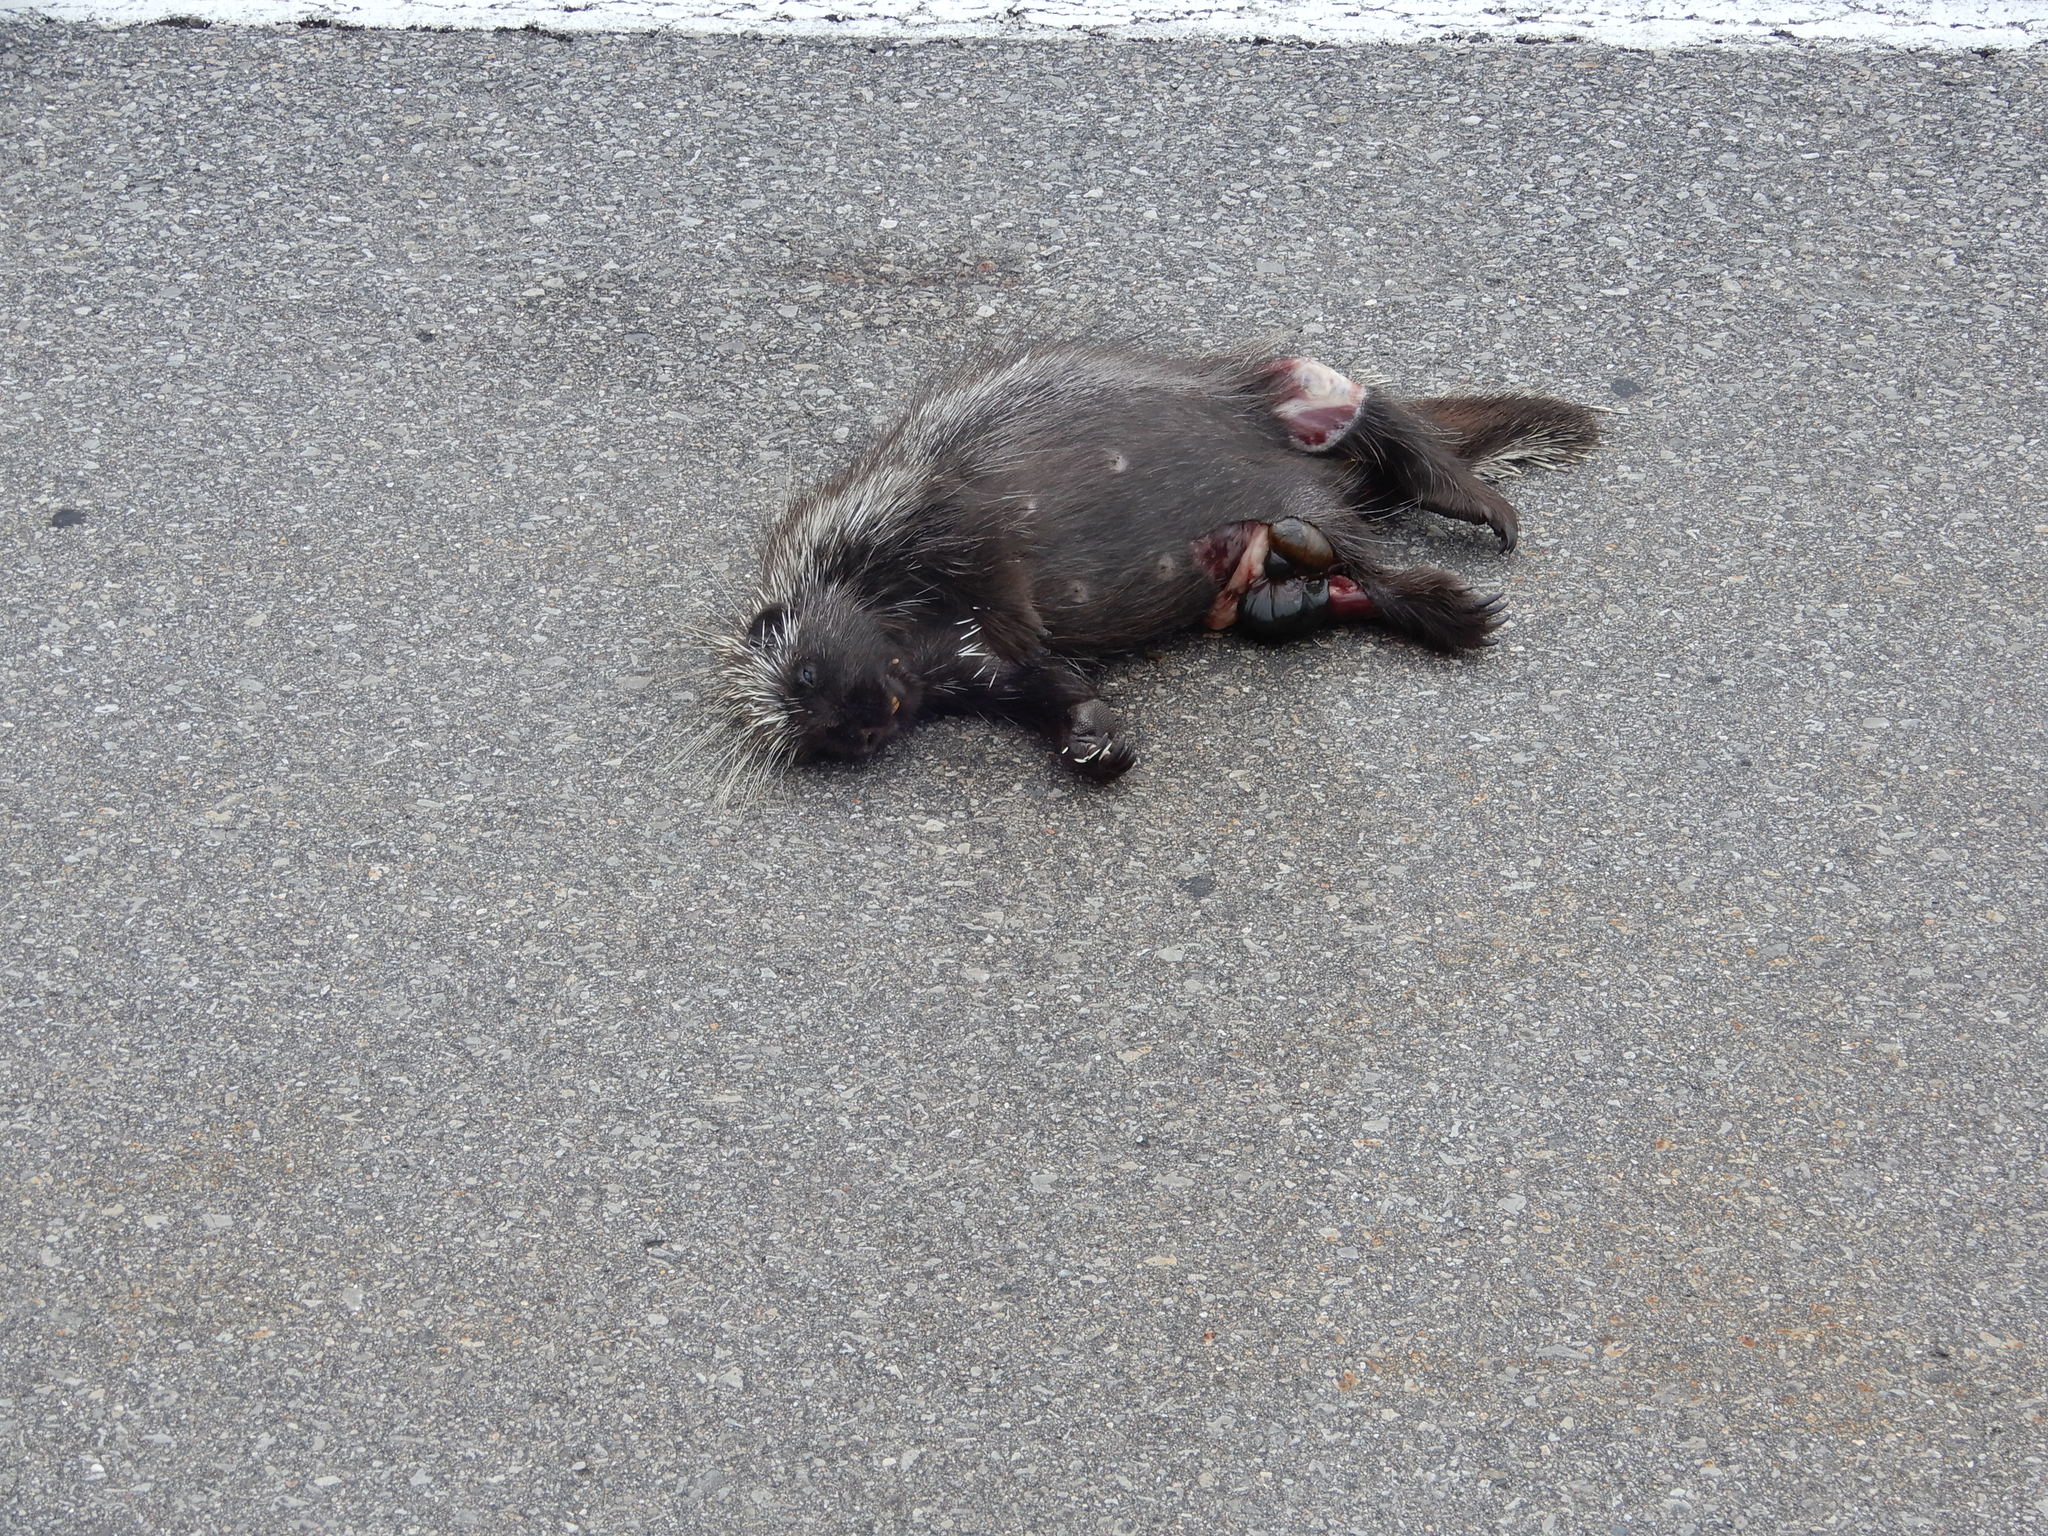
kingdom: Animalia
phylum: Chordata
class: Mammalia
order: Rodentia
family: Erethizontidae
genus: Erethizon
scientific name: Erethizon dorsatus
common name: North american porcupine
